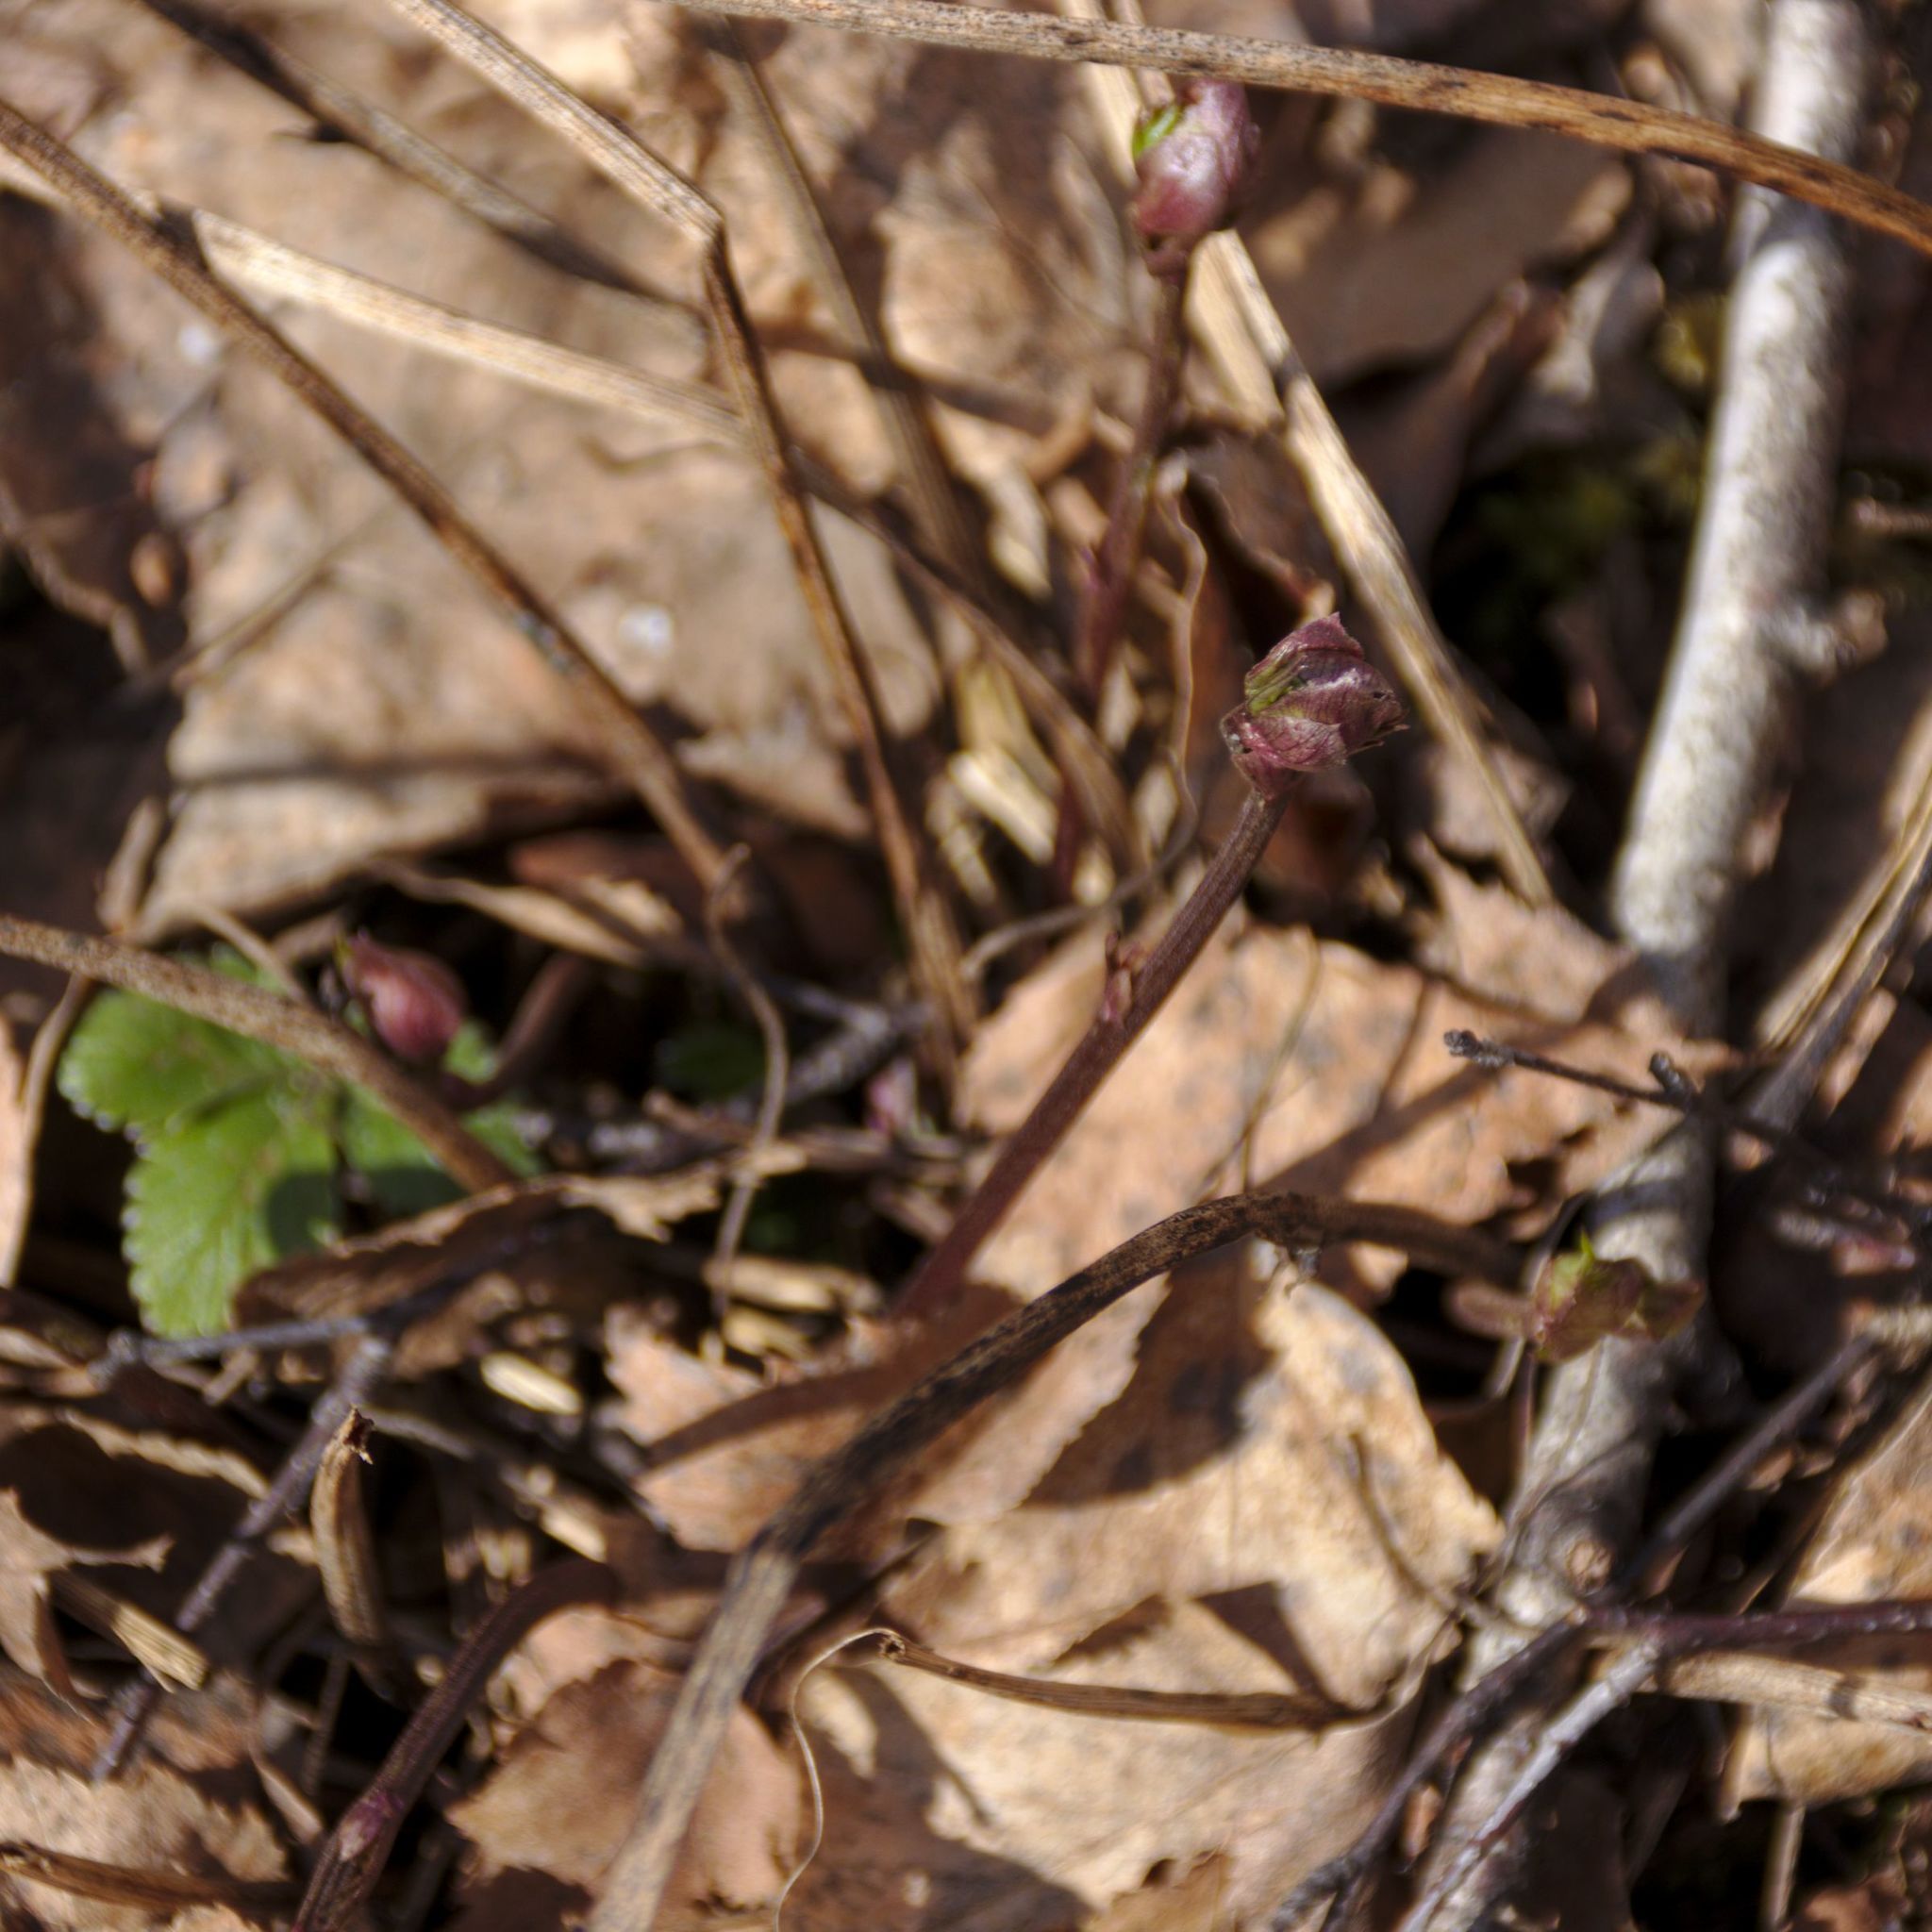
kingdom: Plantae
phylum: Tracheophyta
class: Magnoliopsida
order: Fabales
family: Fabaceae
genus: Lathyrus
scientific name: Lathyrus vernus
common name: Spring pea
